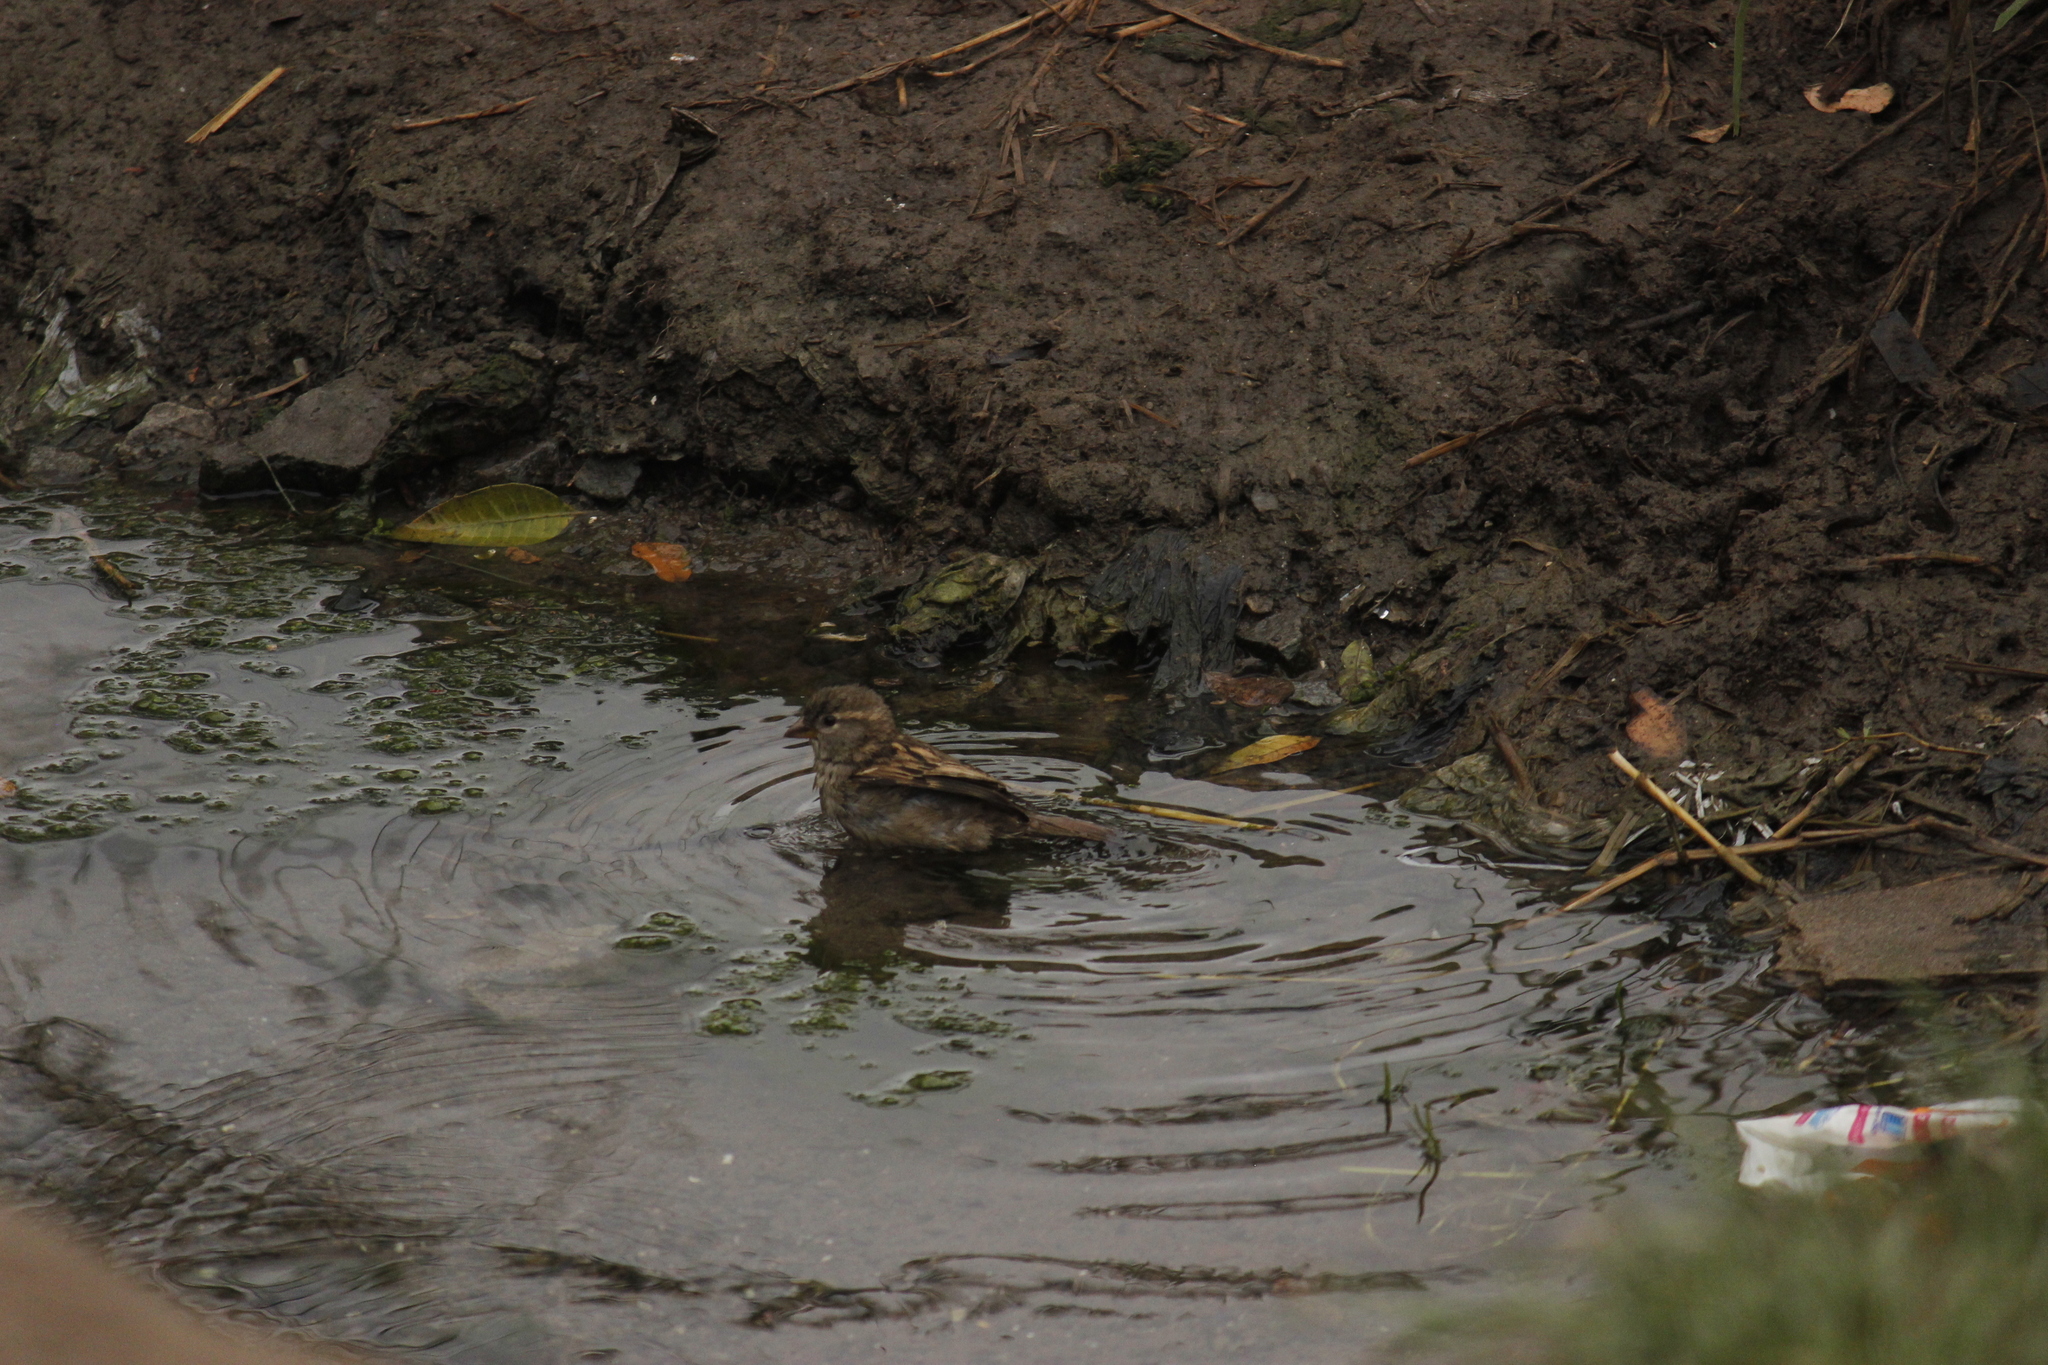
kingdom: Animalia
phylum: Chordata
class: Aves
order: Passeriformes
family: Passeridae
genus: Passer
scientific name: Passer domesticus
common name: House sparrow
